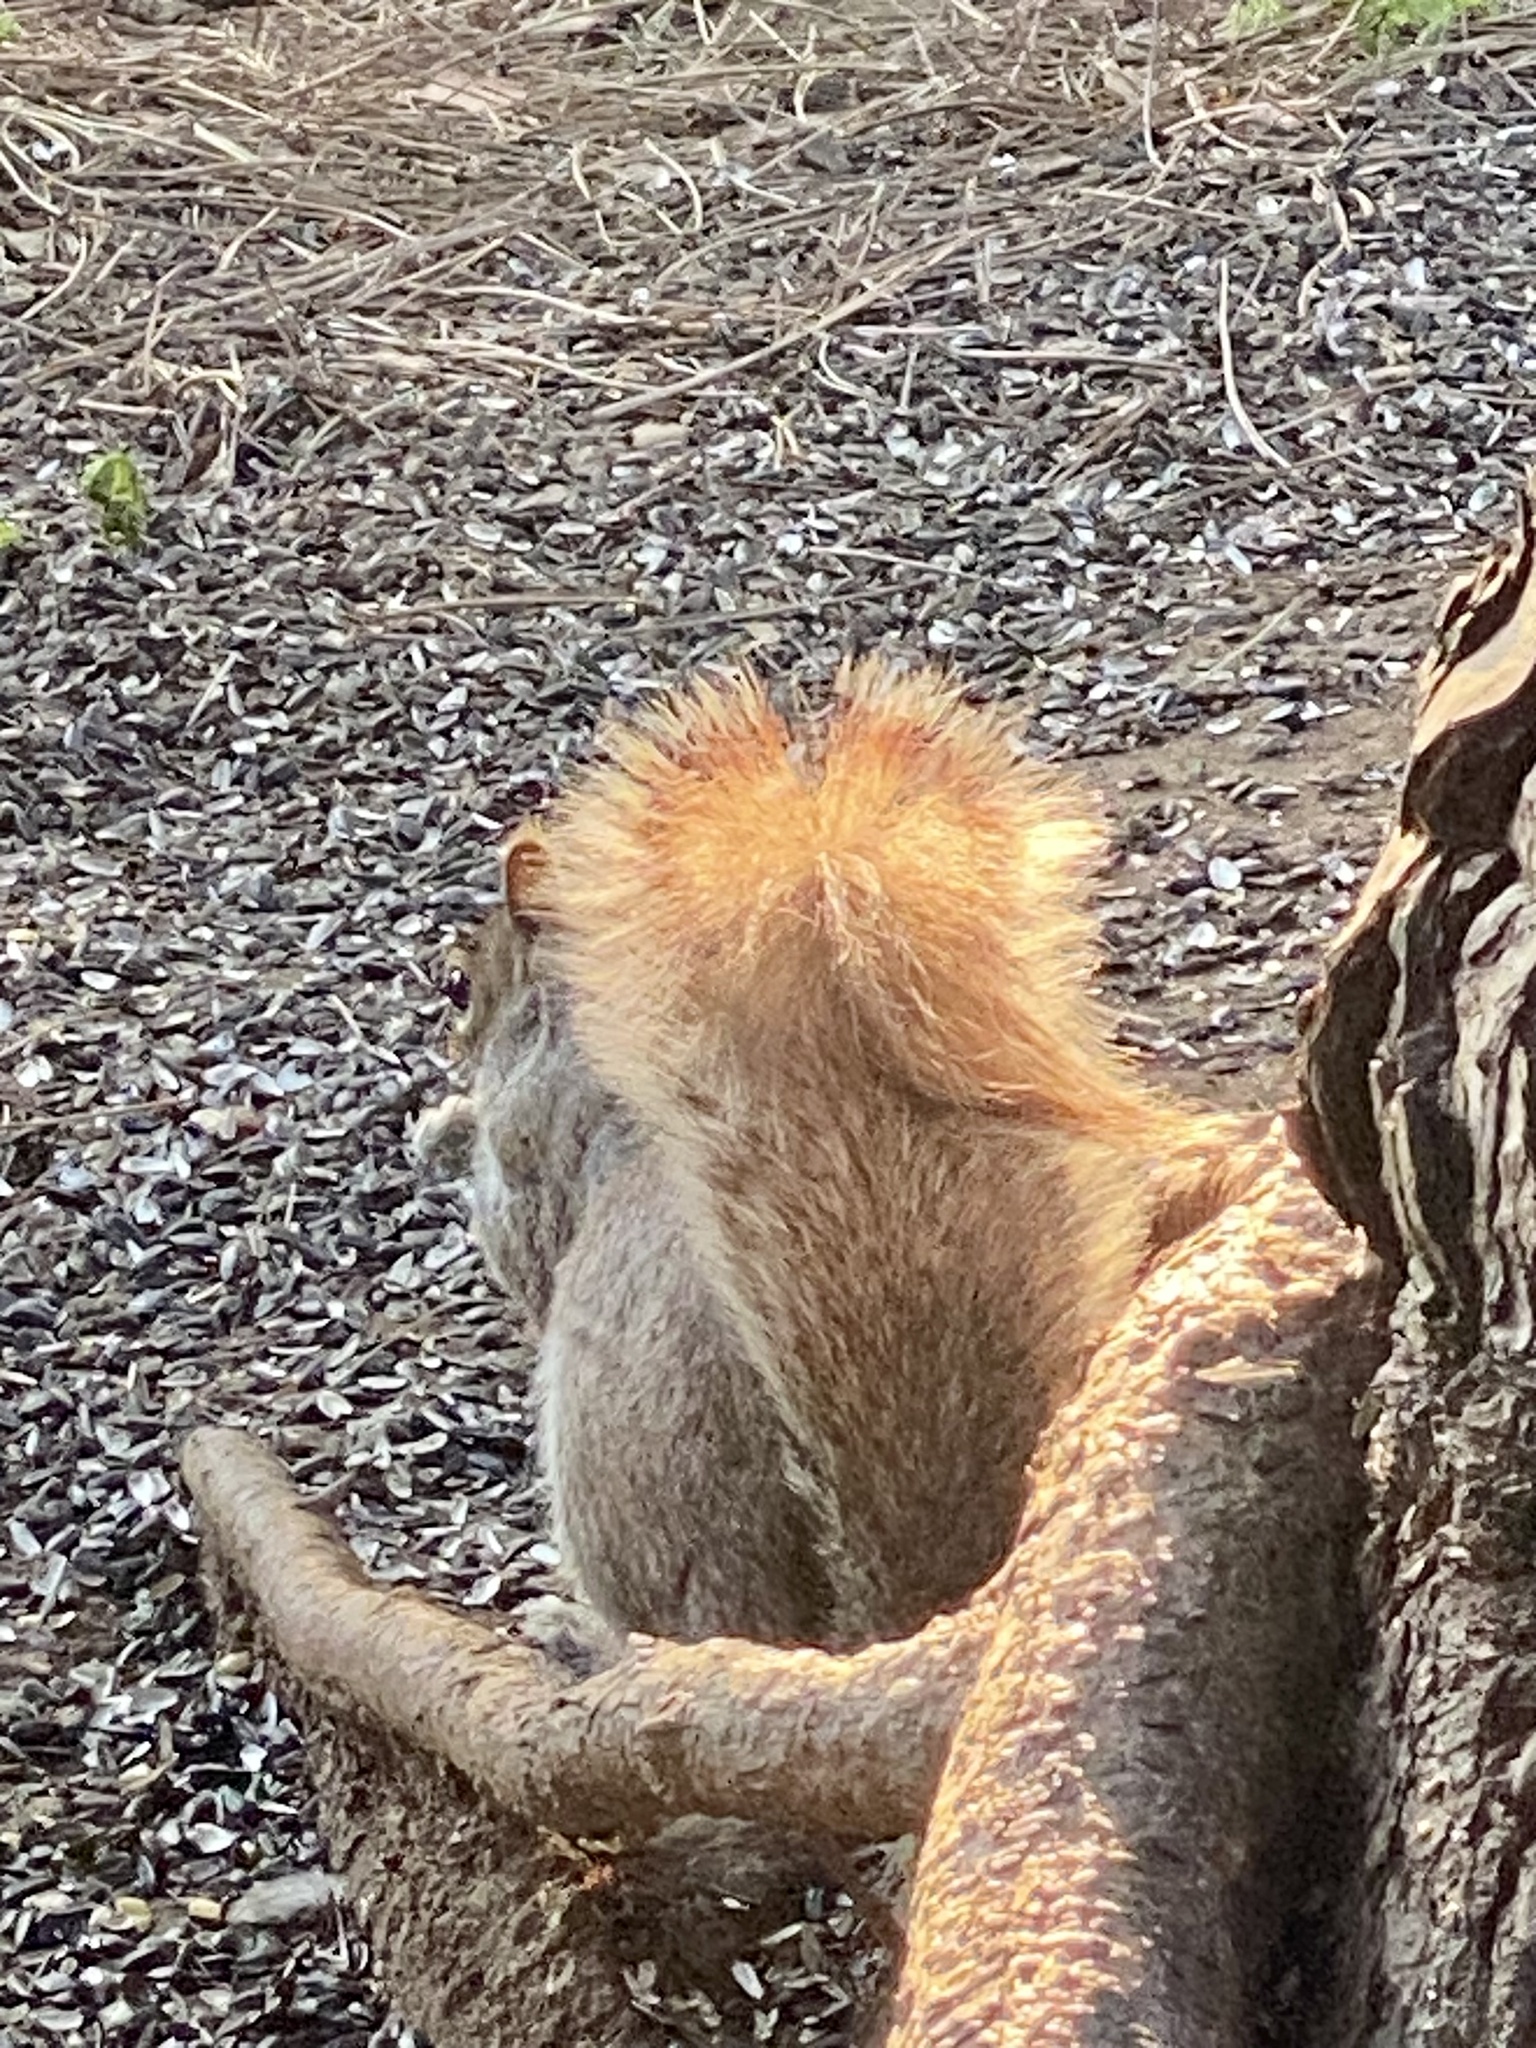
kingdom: Animalia
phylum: Chordata
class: Mammalia
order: Rodentia
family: Sciuridae
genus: Sciurus
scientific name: Sciurus carolinensis
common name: Eastern gray squirrel
